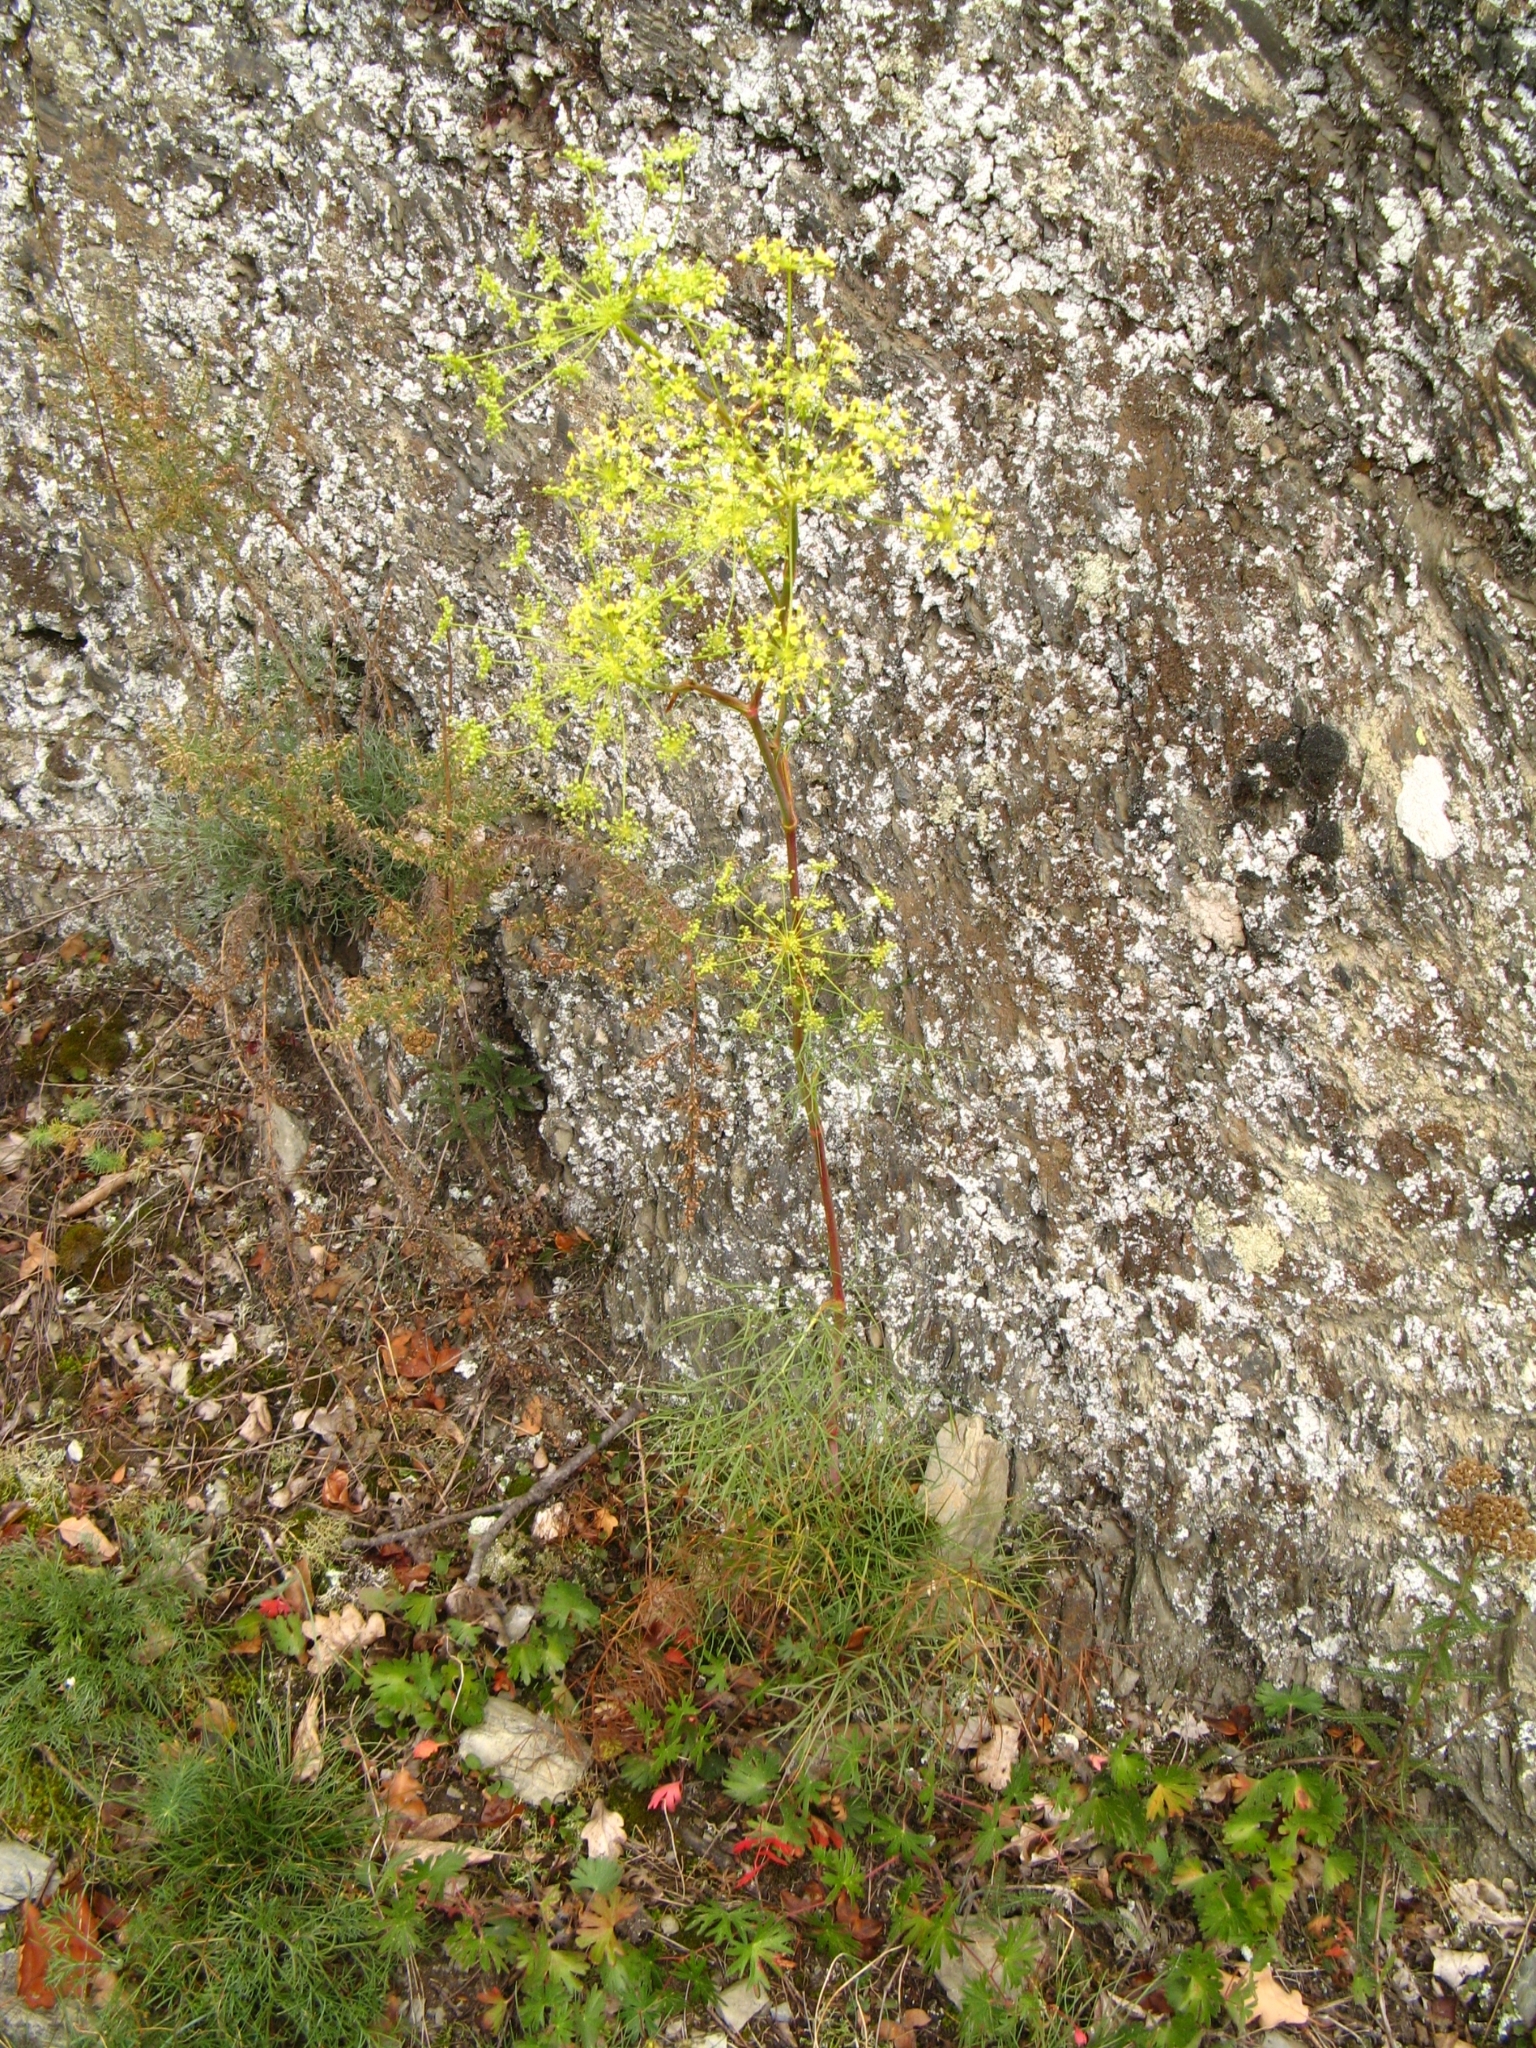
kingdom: Plantae
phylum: Tracheophyta
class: Magnoliopsida
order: Apiales
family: Apiaceae
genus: Peucedanum
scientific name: Peucedanum officinale
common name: Sulphurweed
